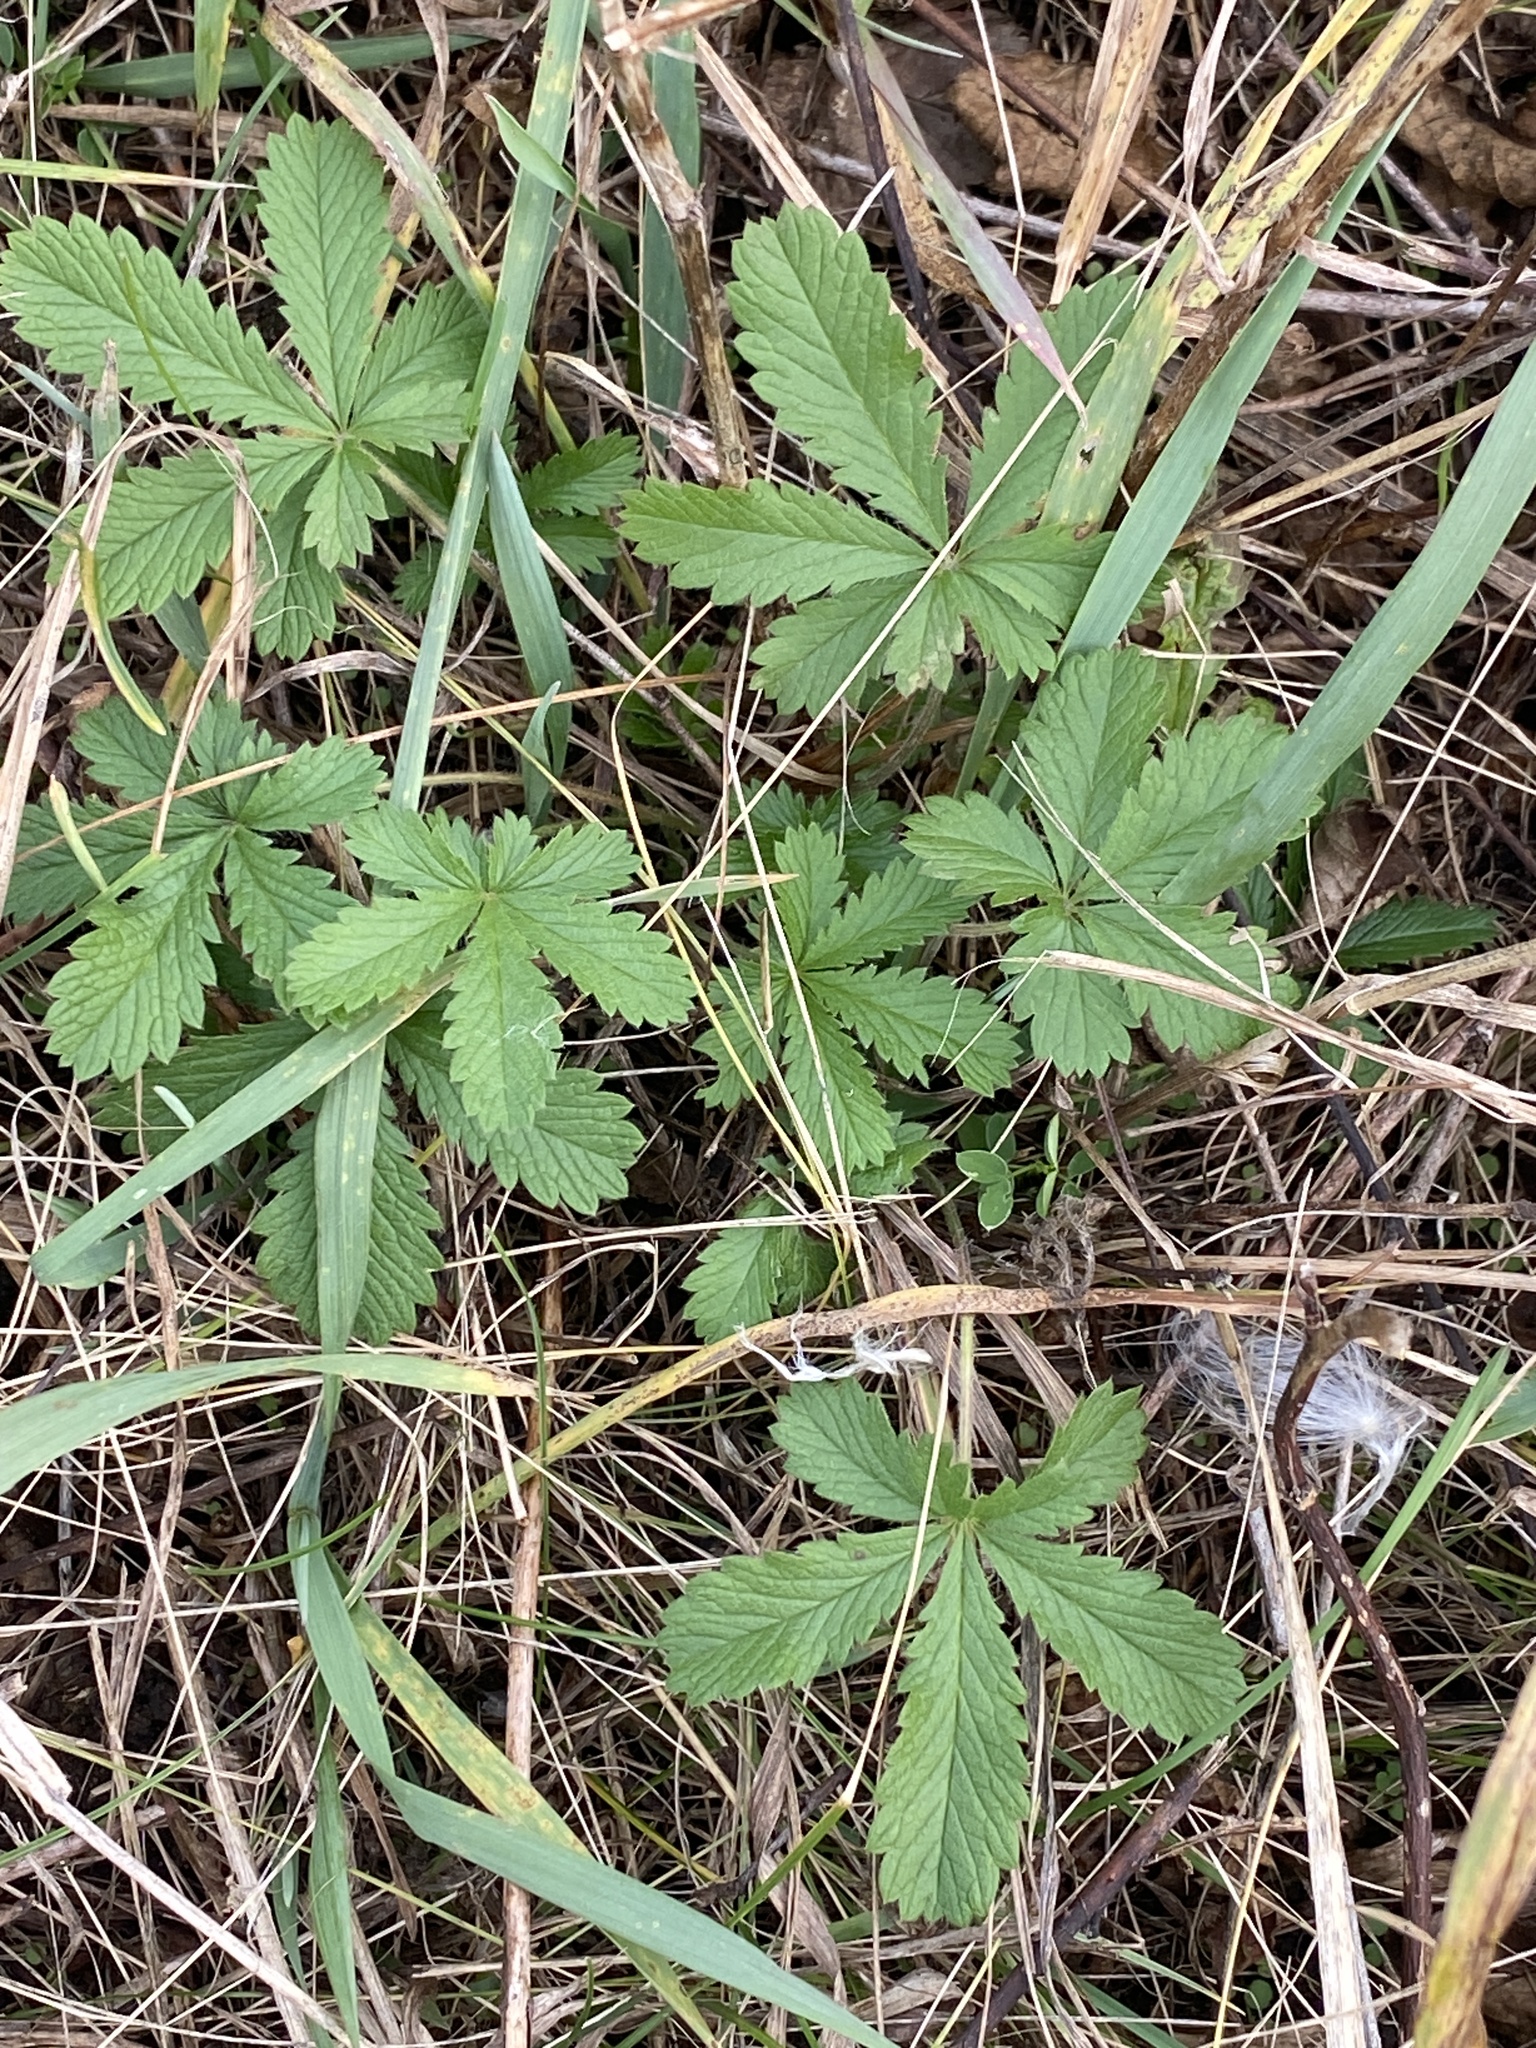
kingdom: Plantae
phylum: Tracheophyta
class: Magnoliopsida
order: Rosales
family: Rosaceae
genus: Potentilla
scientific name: Potentilla recta
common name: Sulphur cinquefoil
